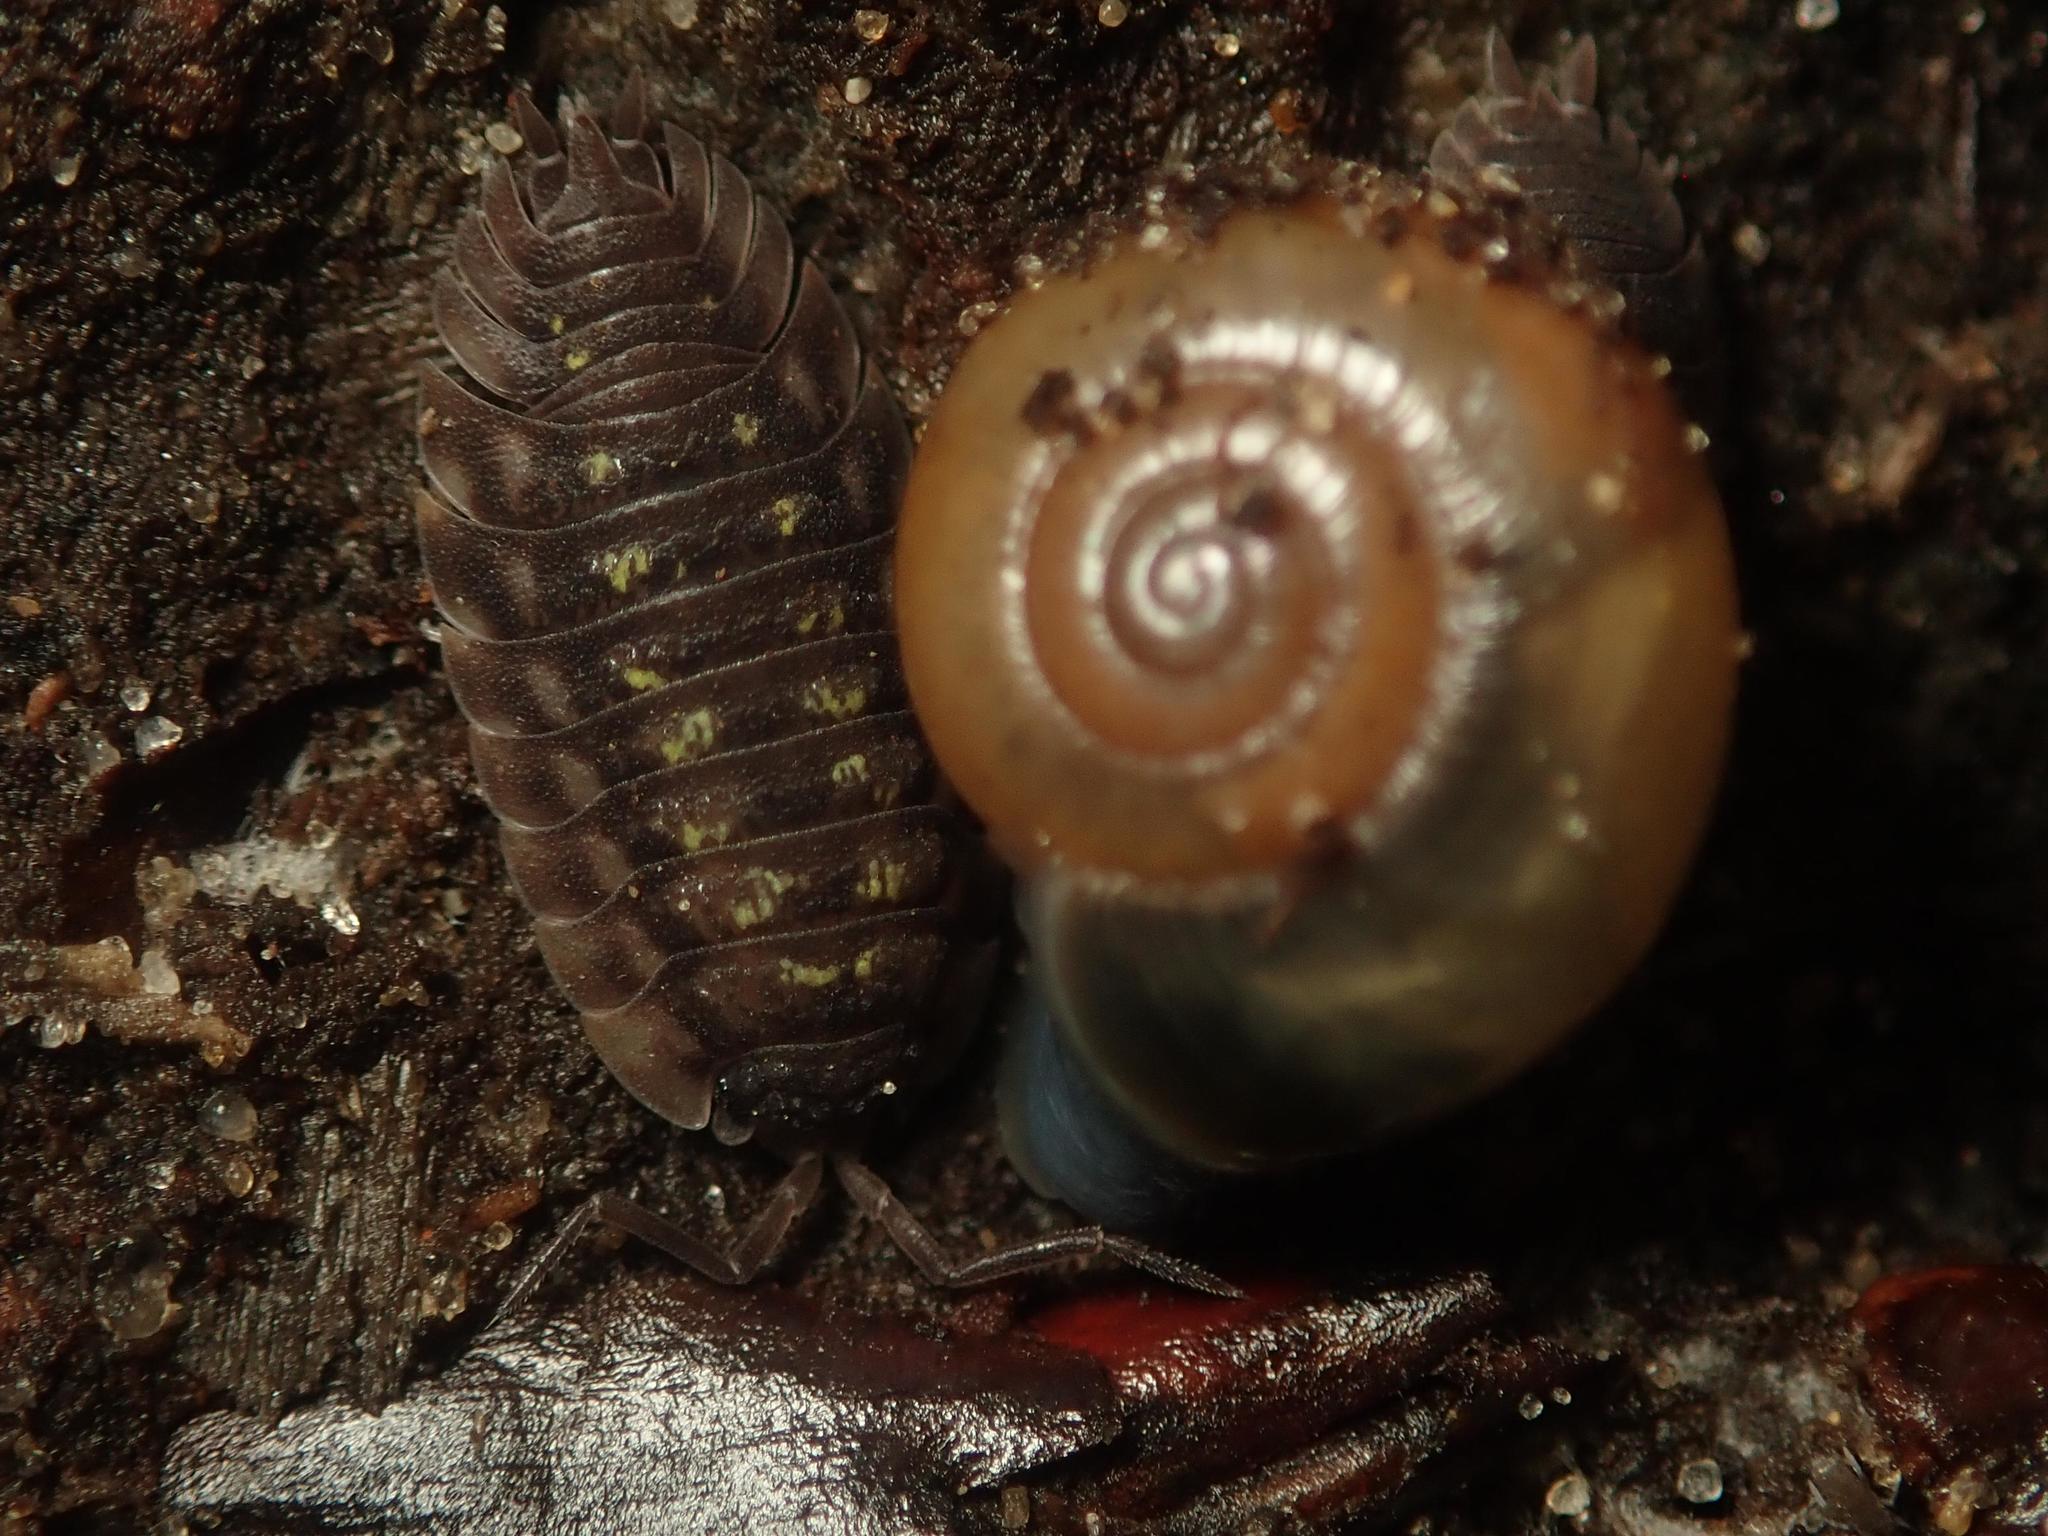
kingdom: Animalia
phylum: Arthropoda
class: Malacostraca
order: Isopoda
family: Oniscidae
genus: Oniscus
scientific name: Oniscus asellus
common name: Common shiny woodlouse
